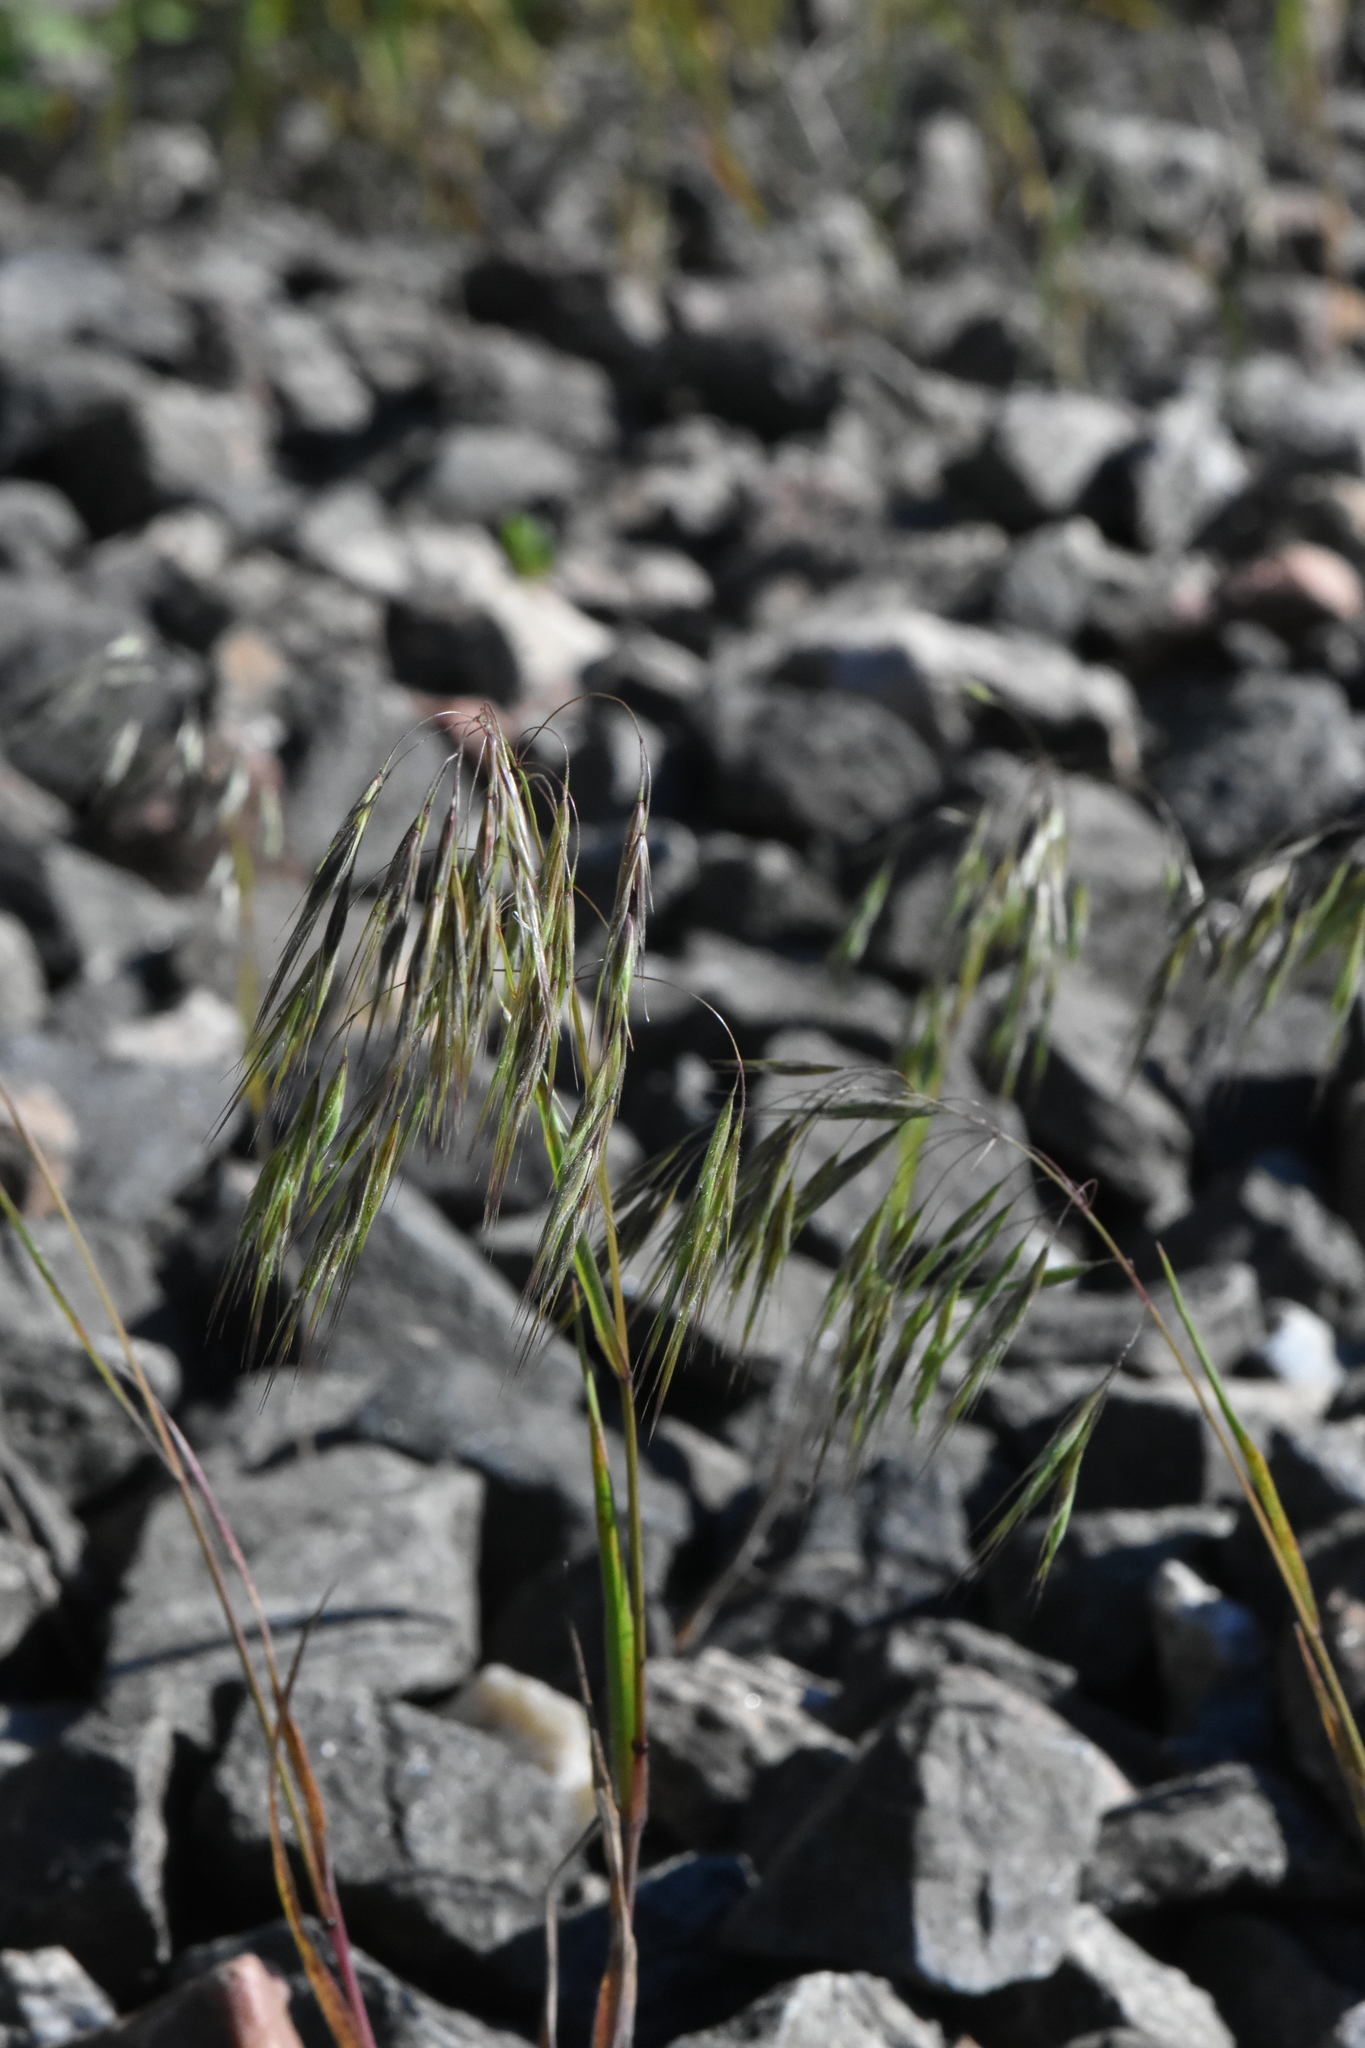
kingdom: Plantae
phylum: Tracheophyta
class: Liliopsida
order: Poales
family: Poaceae
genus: Bromus
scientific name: Bromus tectorum
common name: Cheatgrass
